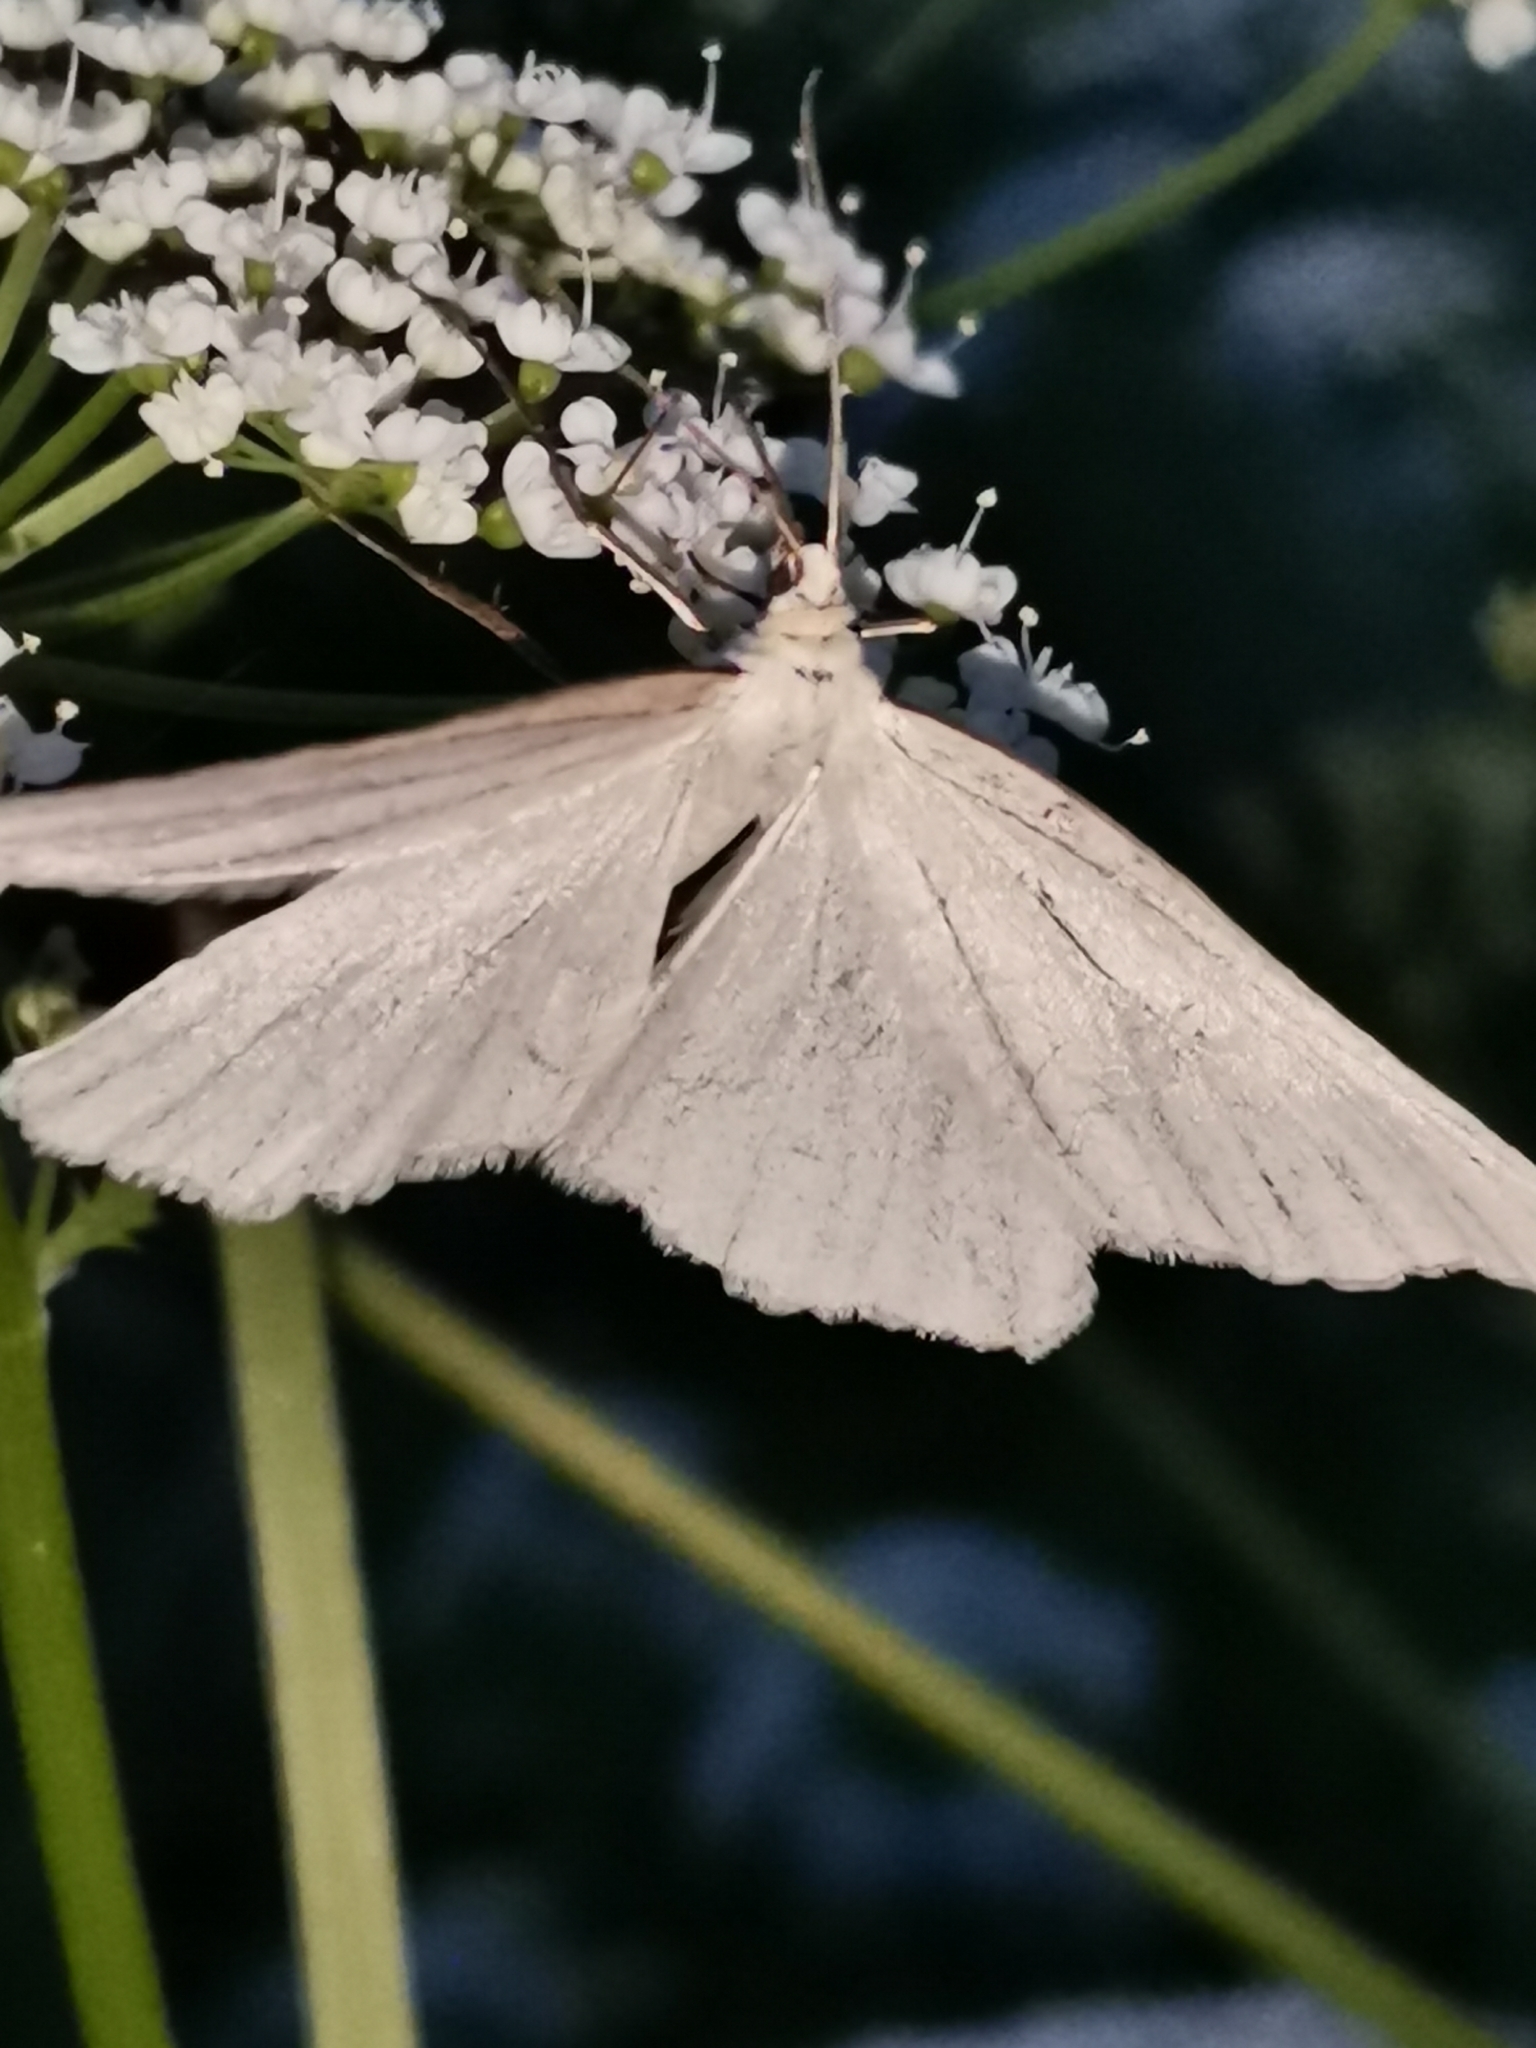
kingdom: Animalia
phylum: Arthropoda
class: Insecta
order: Lepidoptera
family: Geometridae
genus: Siona
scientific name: Siona lineata
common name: Black-veined moth
